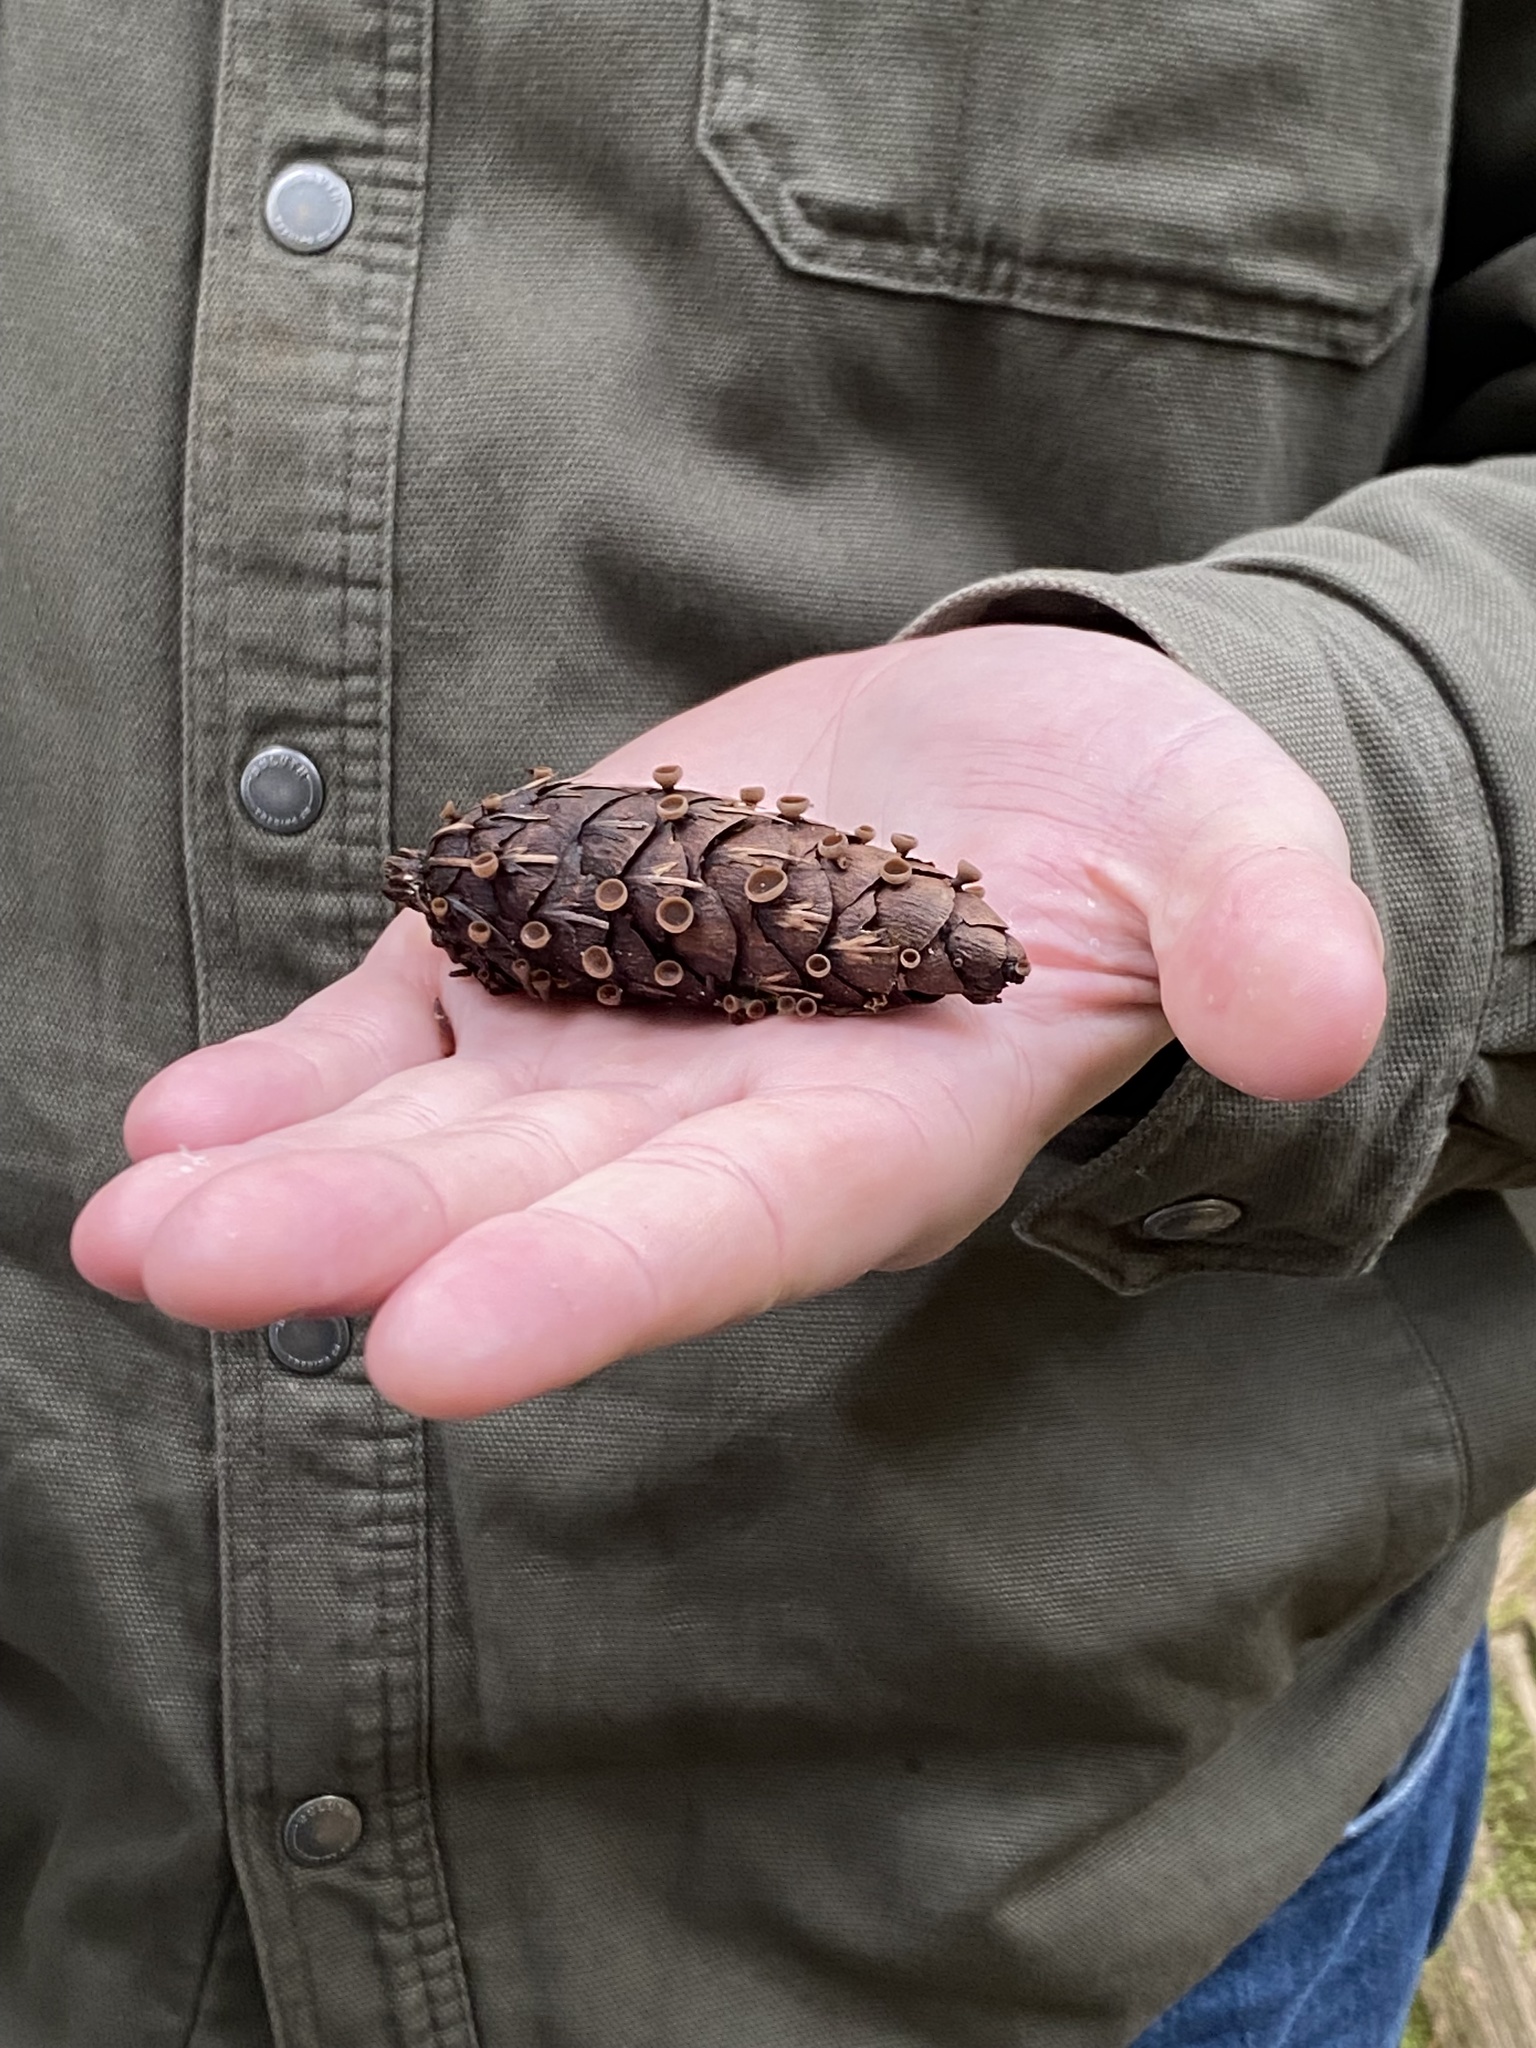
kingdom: Fungi
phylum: Ascomycota
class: Leotiomycetes
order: Helotiales
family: Sclerotiniaceae
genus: Ciboria
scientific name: Ciboria rufofusca
